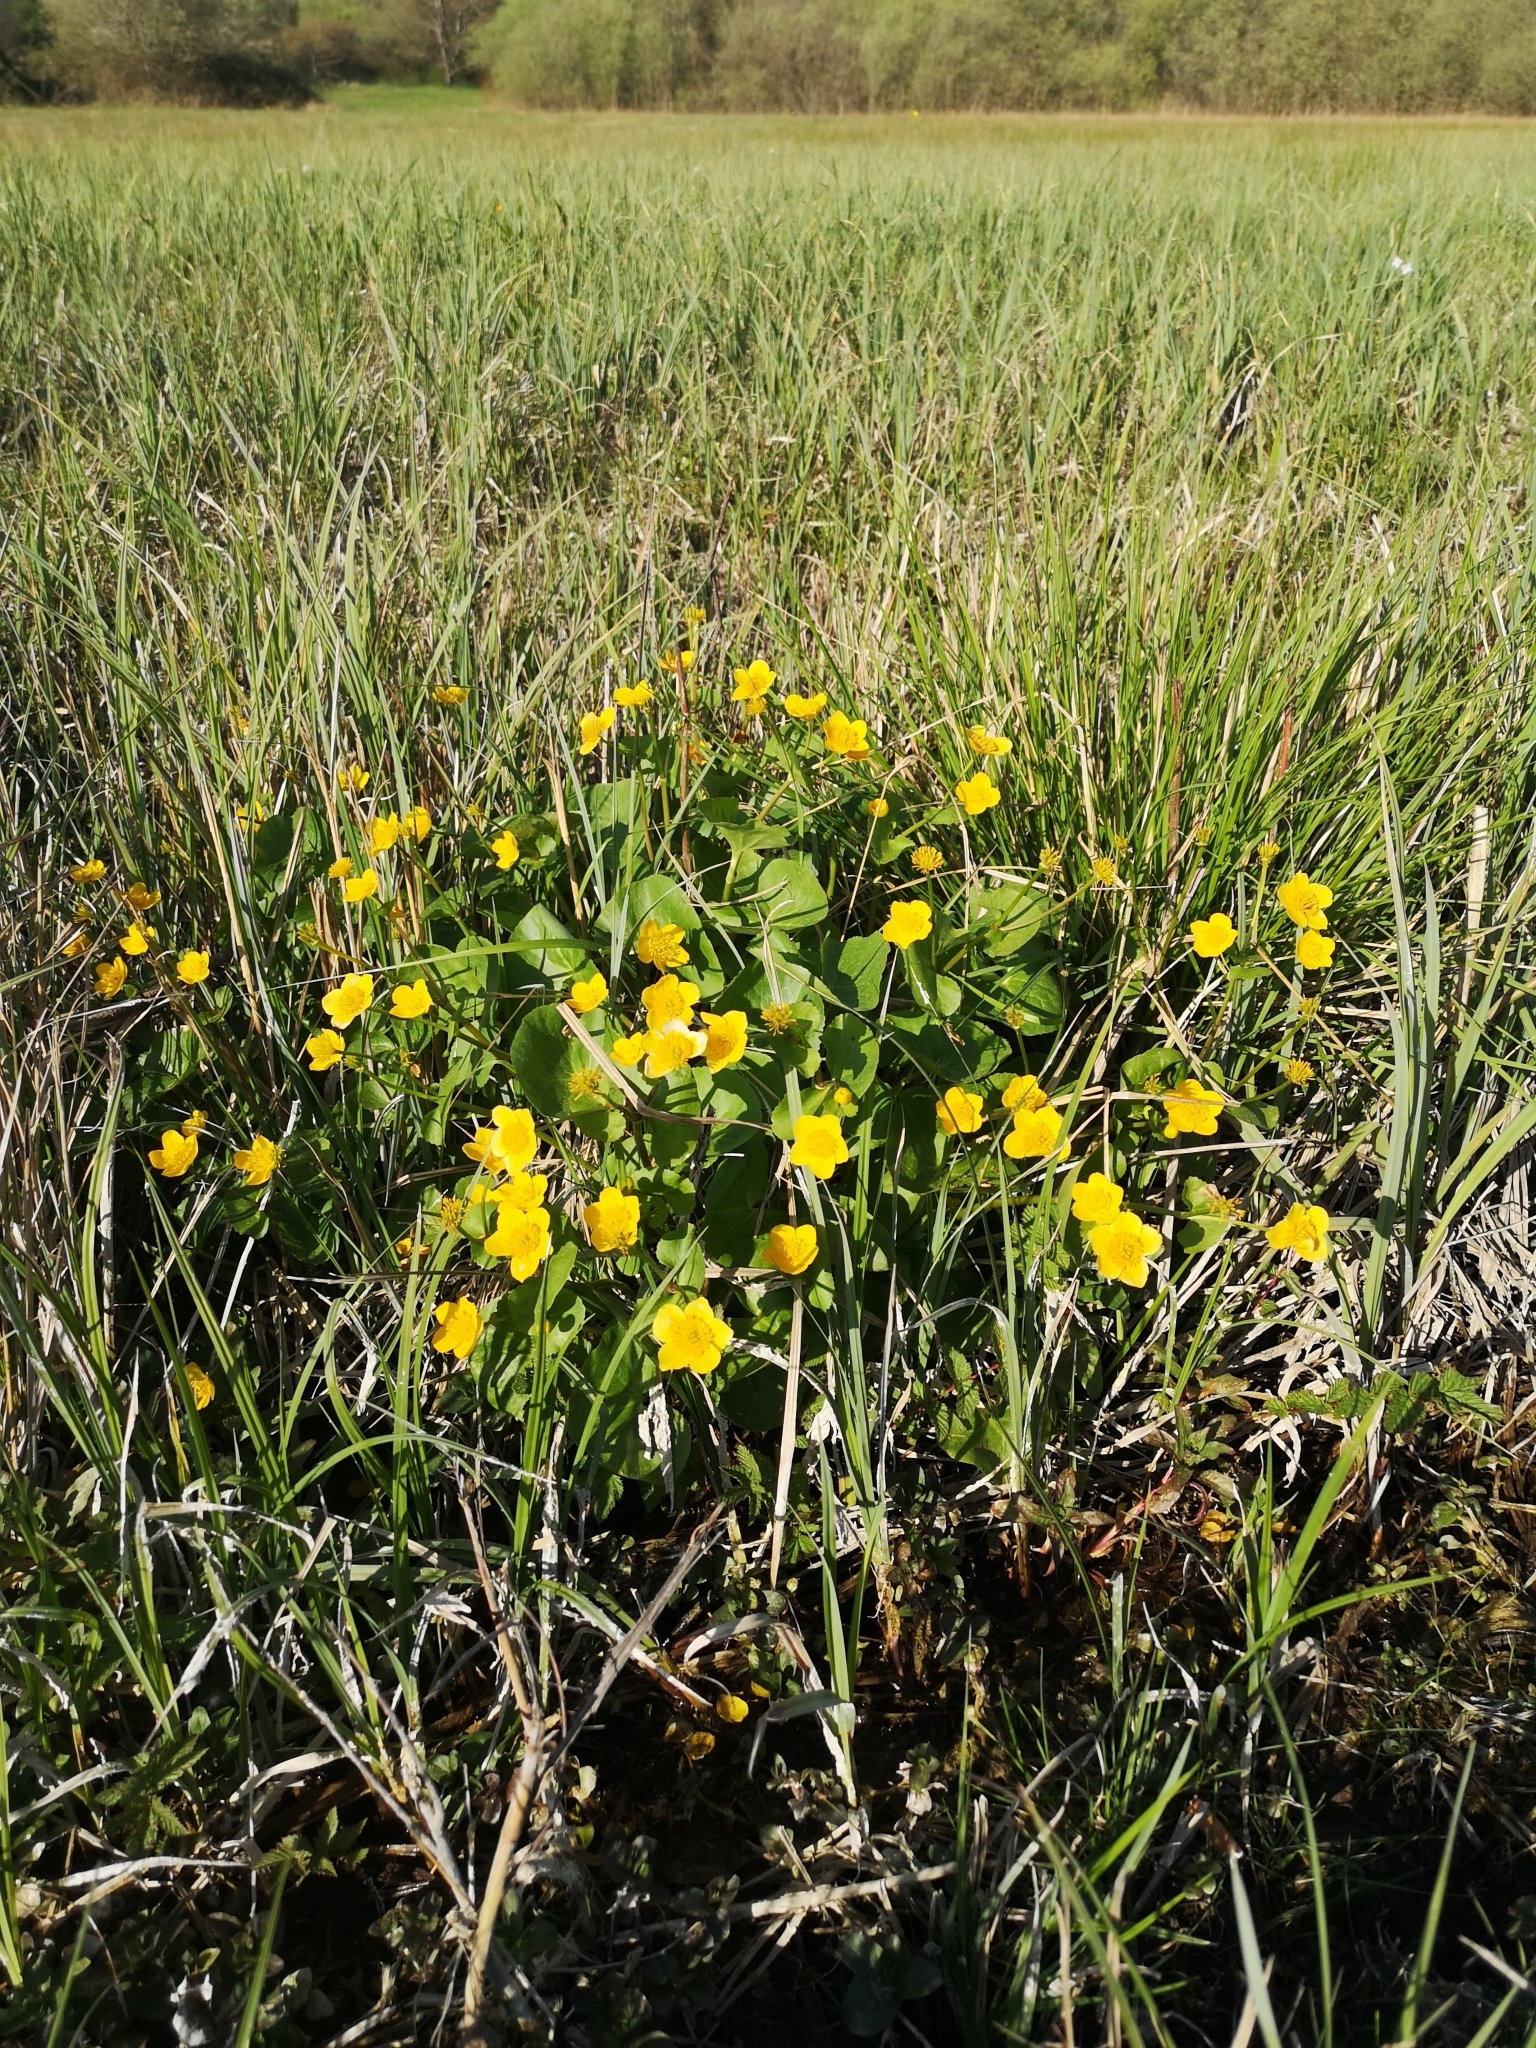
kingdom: Plantae
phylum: Tracheophyta
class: Magnoliopsida
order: Ranunculales
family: Ranunculaceae
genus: Caltha
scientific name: Caltha palustris
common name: Marsh marigold
